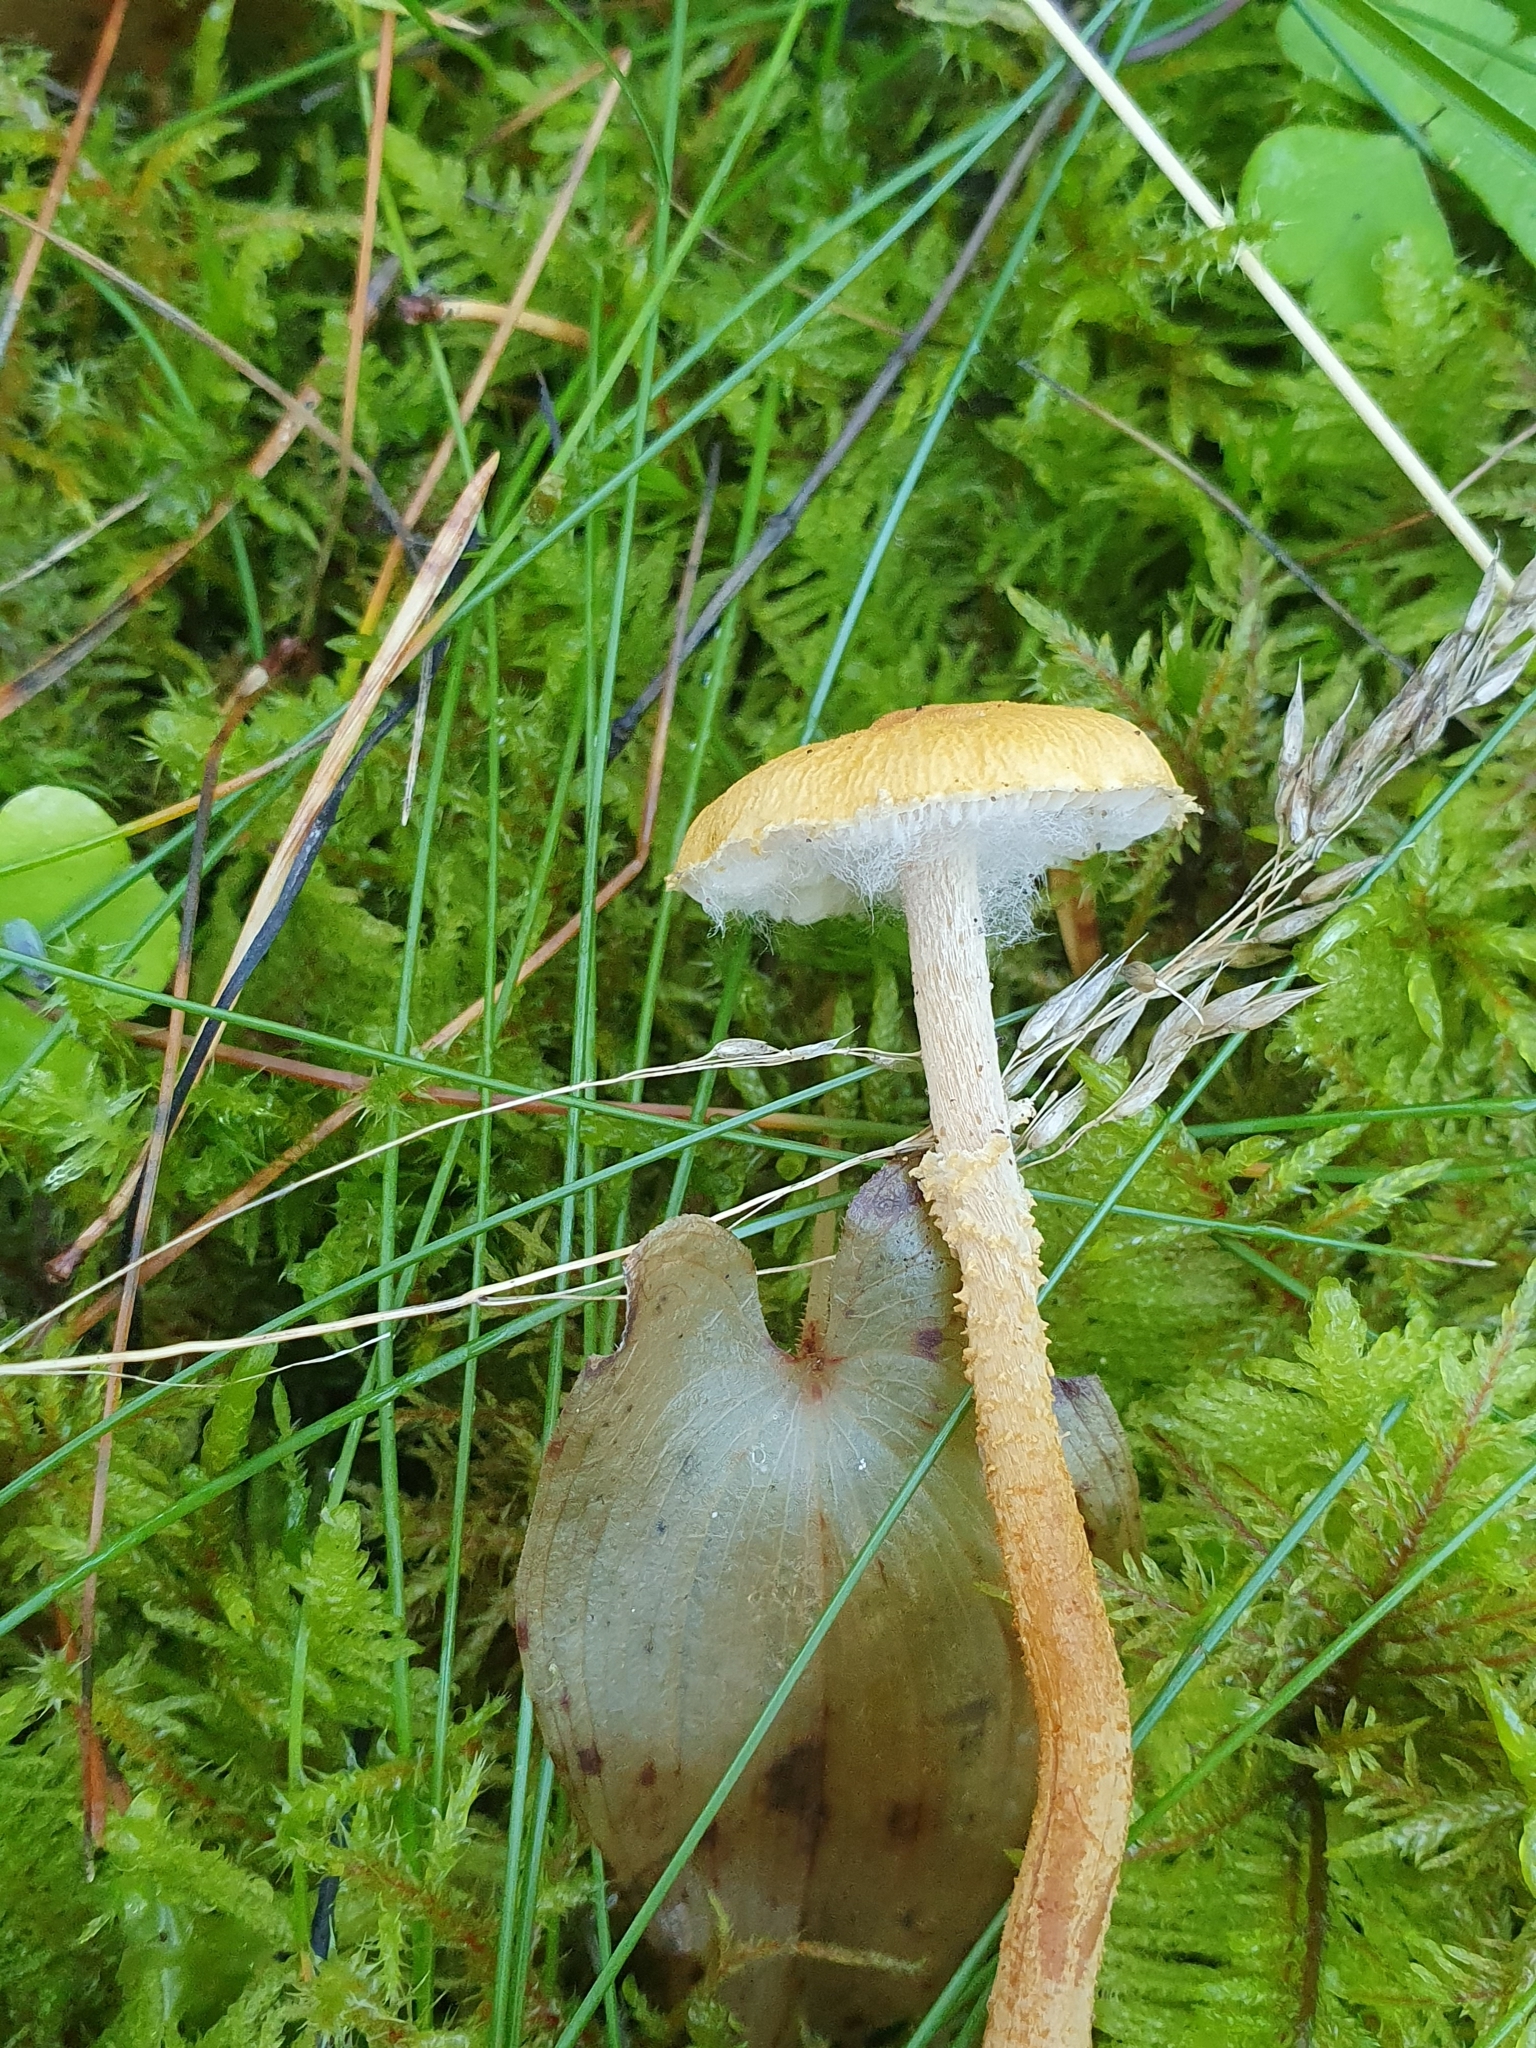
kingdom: Fungi
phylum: Basidiomycota
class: Agaricomycetes
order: Agaricales
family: Tricholomataceae
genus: Cystoderma
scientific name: Cystoderma amianthinum
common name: Earthy powdercap
